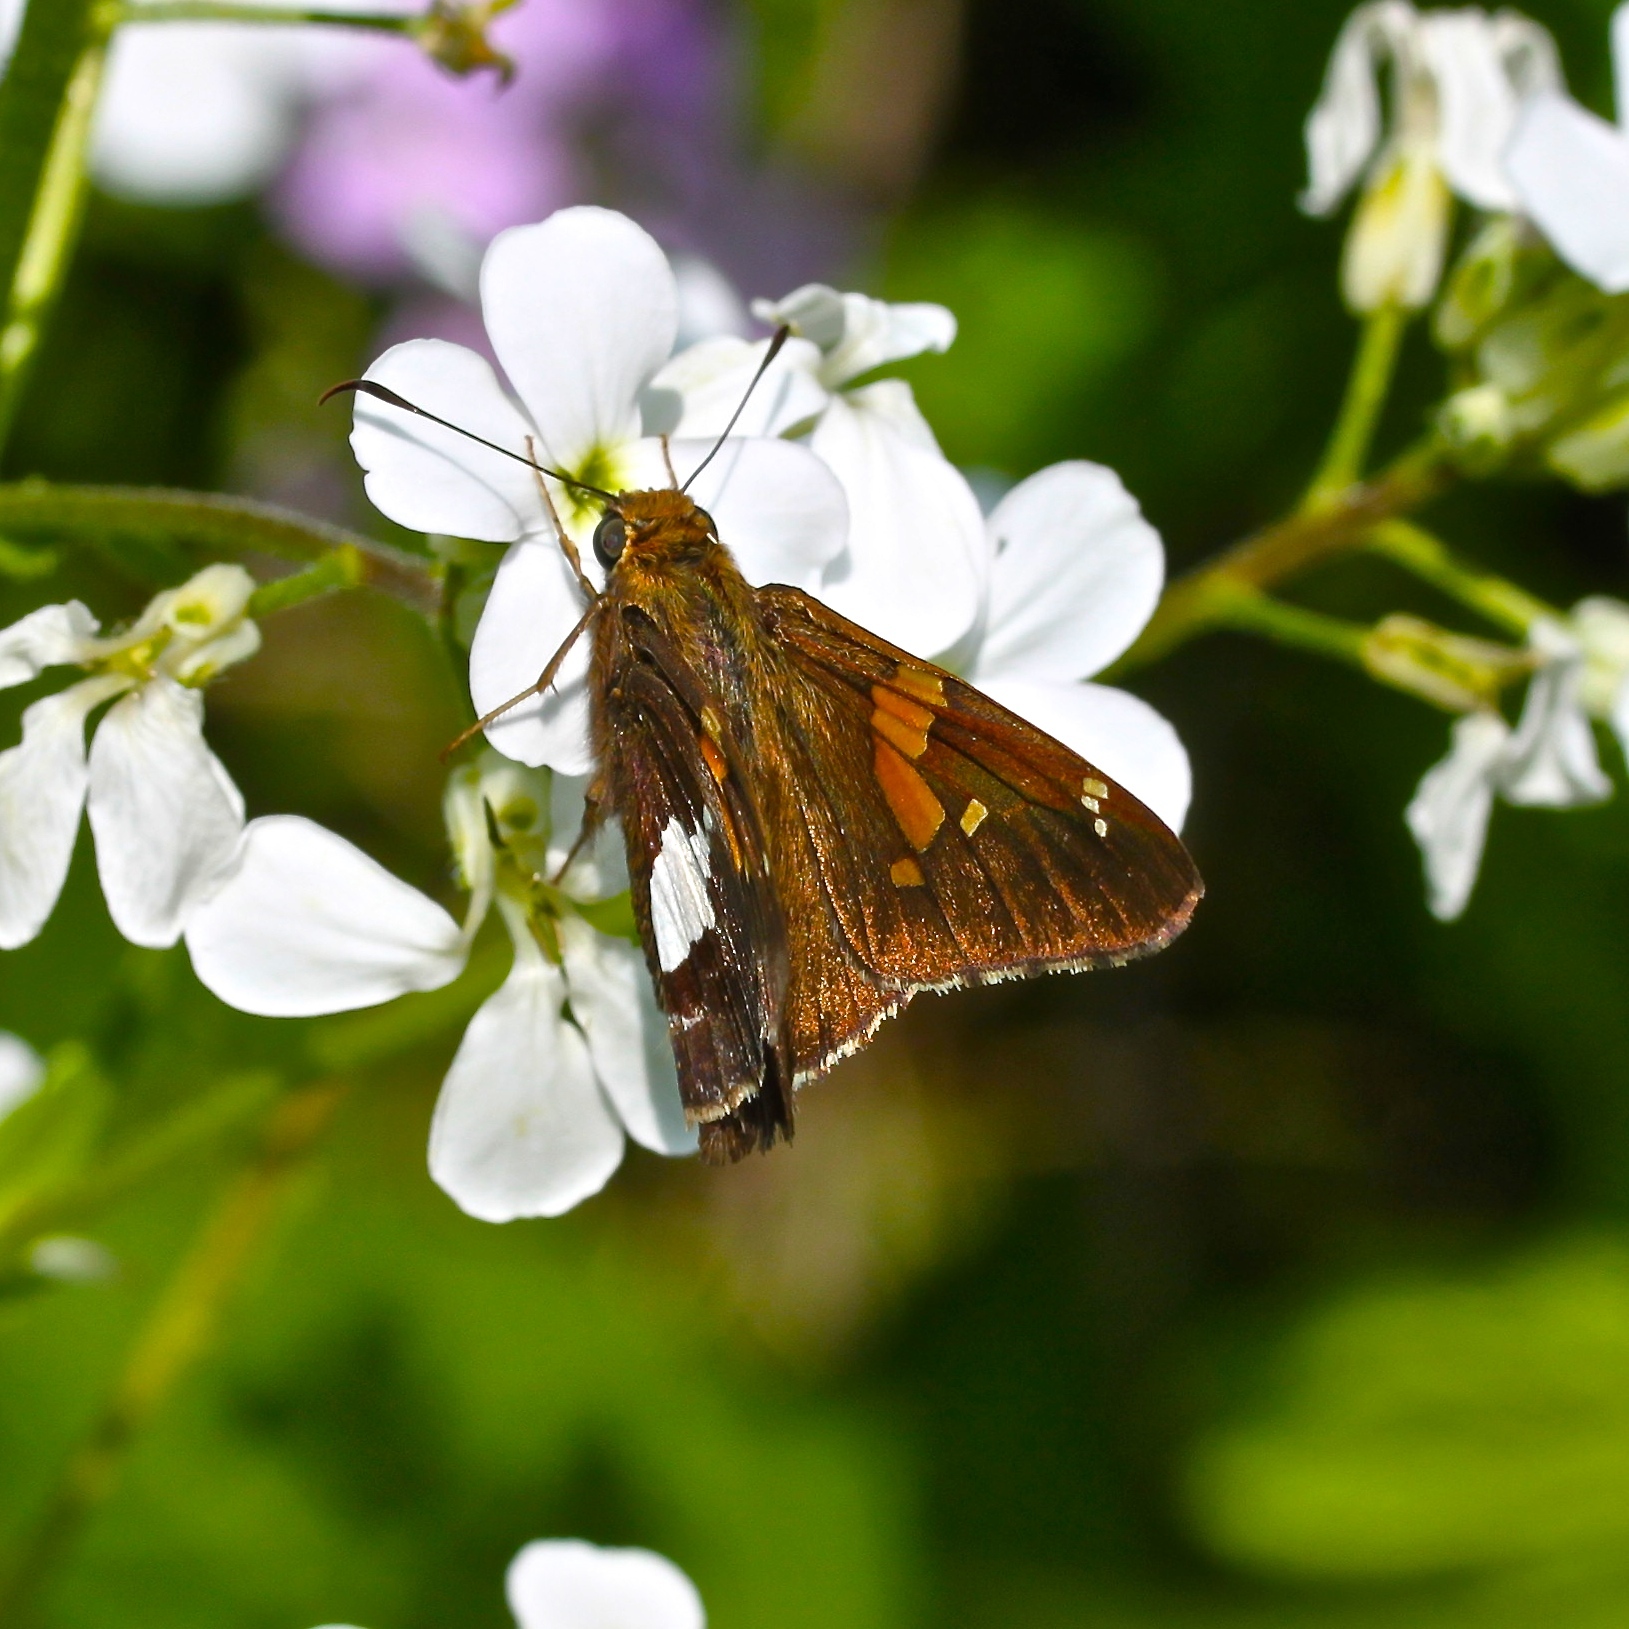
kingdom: Animalia
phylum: Arthropoda
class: Insecta
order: Lepidoptera
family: Hesperiidae
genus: Epargyreus
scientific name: Epargyreus clarus
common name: Silver-spotted skipper
